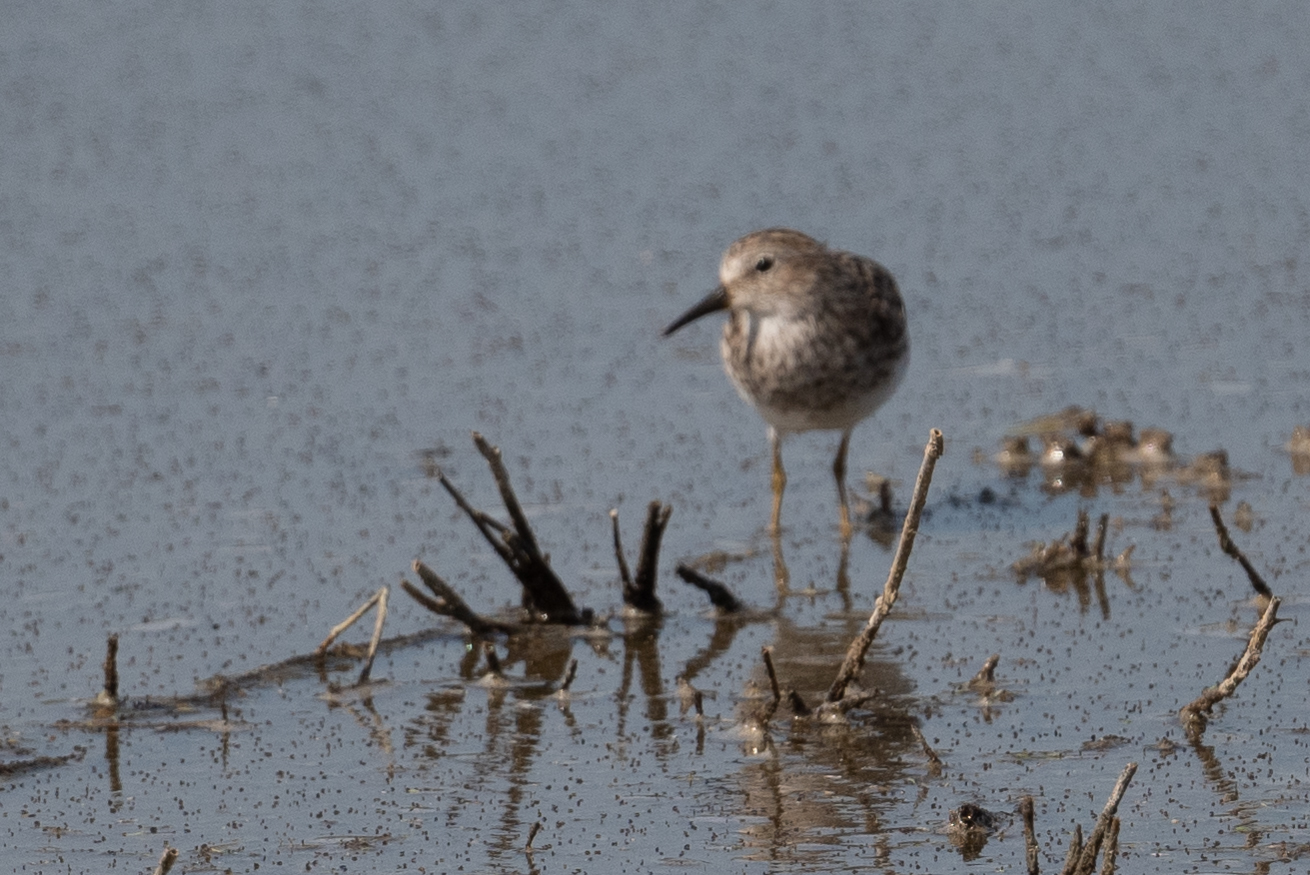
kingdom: Animalia
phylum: Chordata
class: Aves
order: Charadriiformes
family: Scolopacidae
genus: Calidris
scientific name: Calidris minutilla
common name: Least sandpiper
